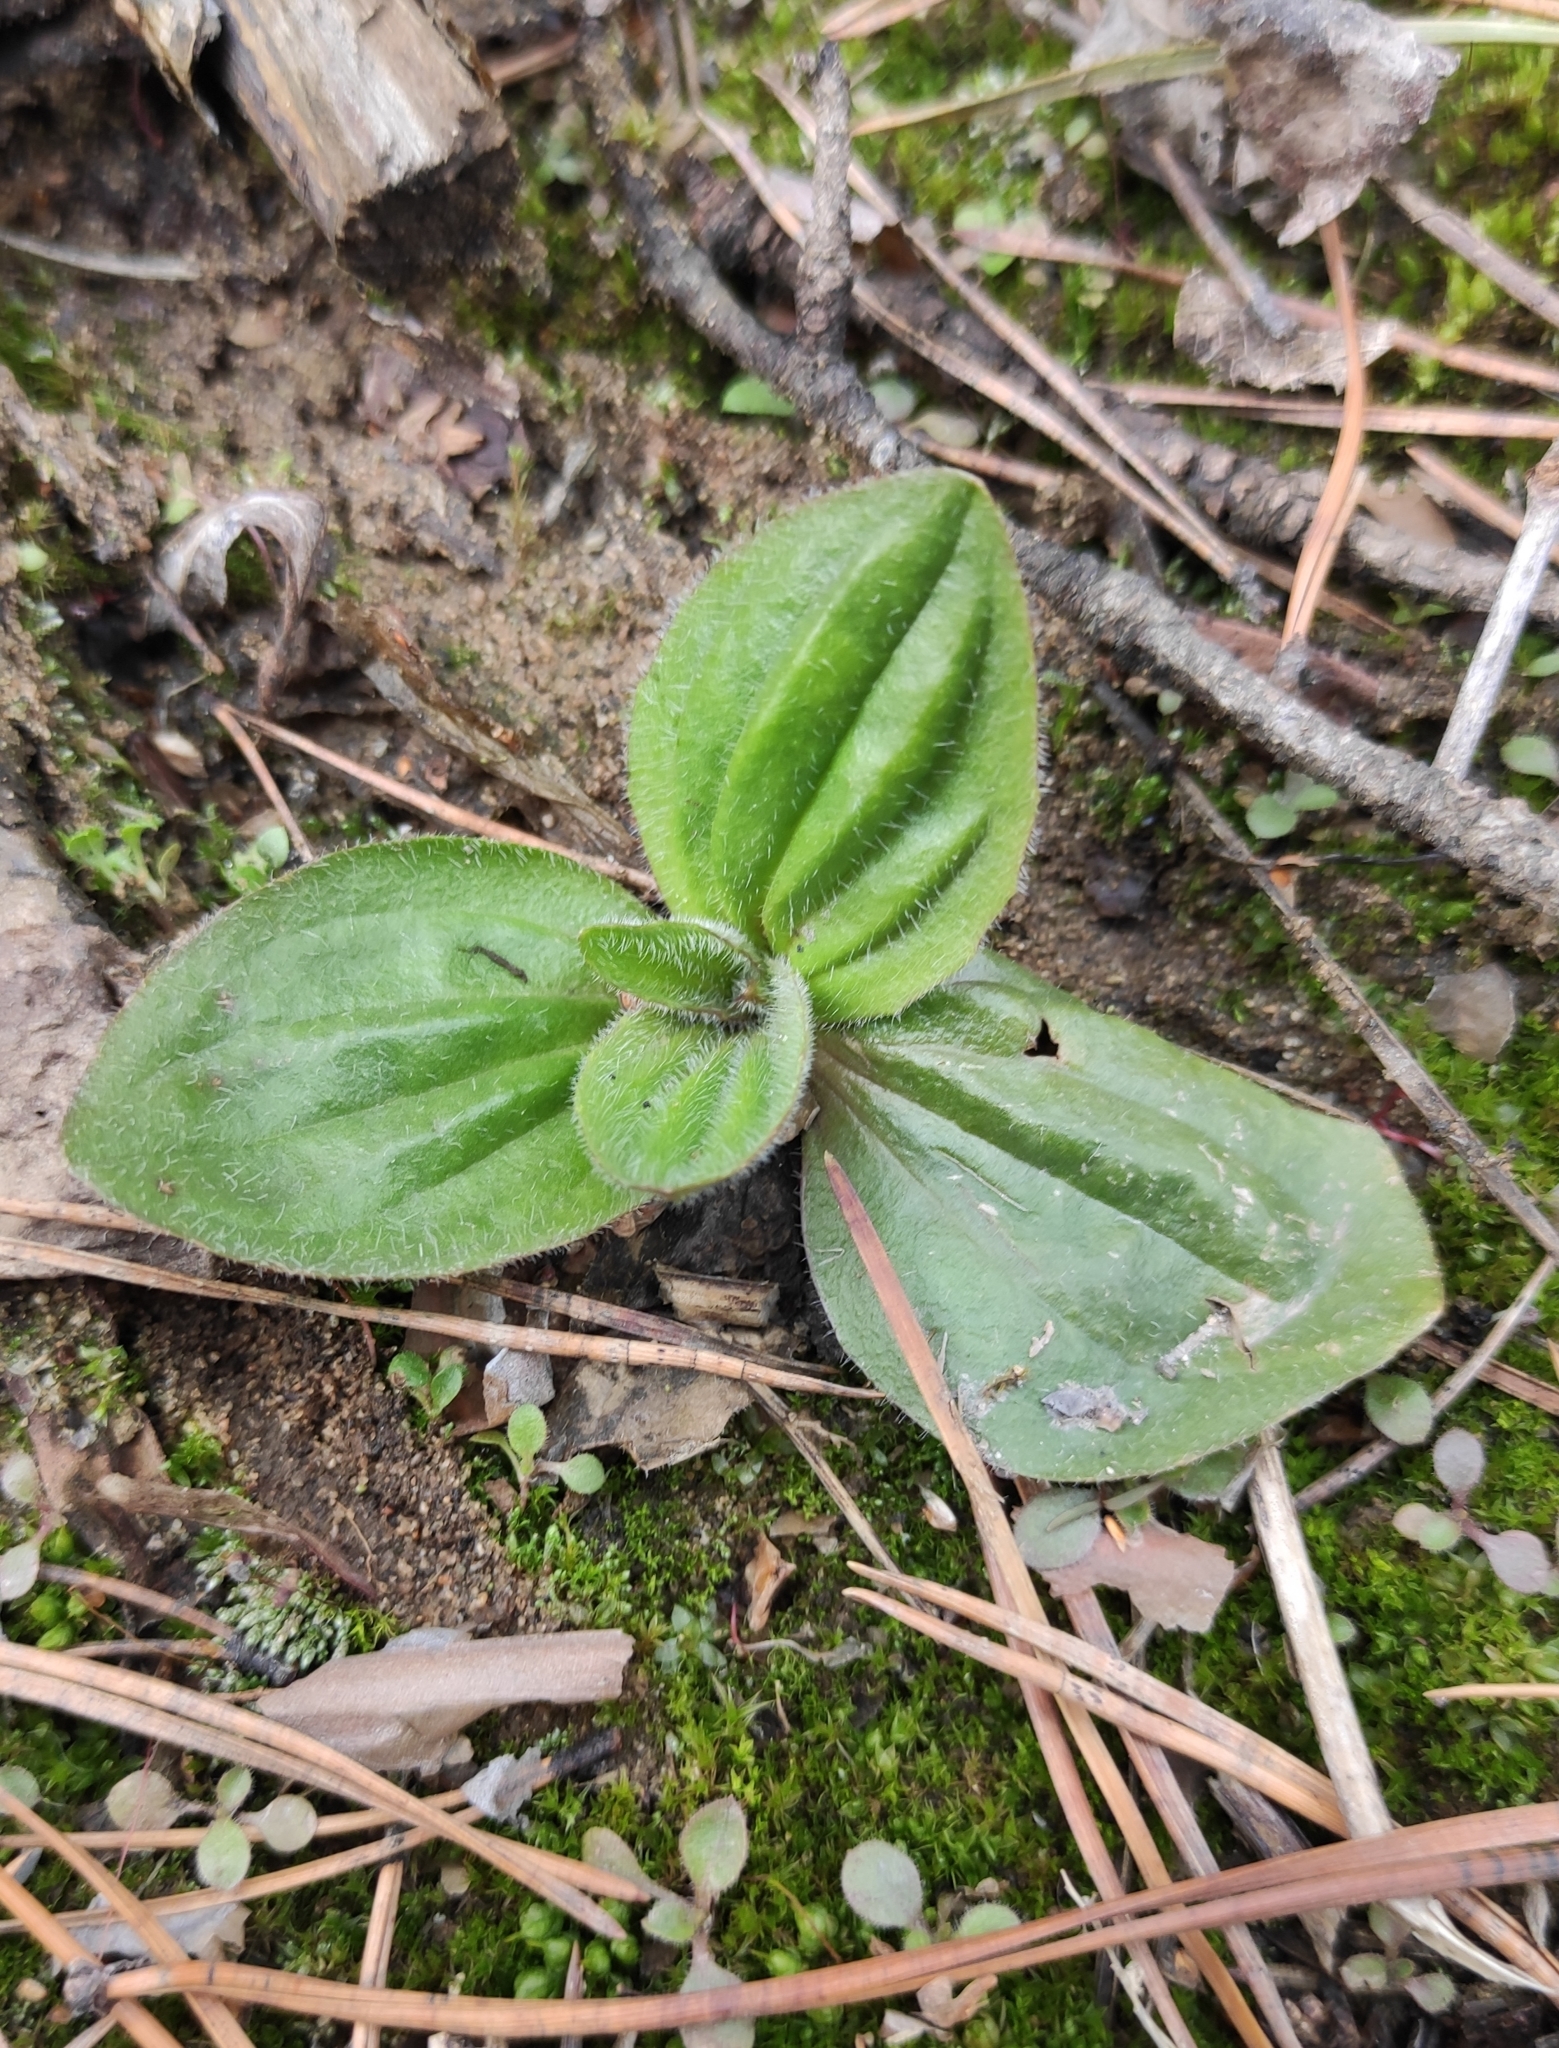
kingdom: Plantae
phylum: Tracheophyta
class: Magnoliopsida
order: Lamiales
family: Plantaginaceae
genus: Plantago
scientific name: Plantago media
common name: Hoary plantain
